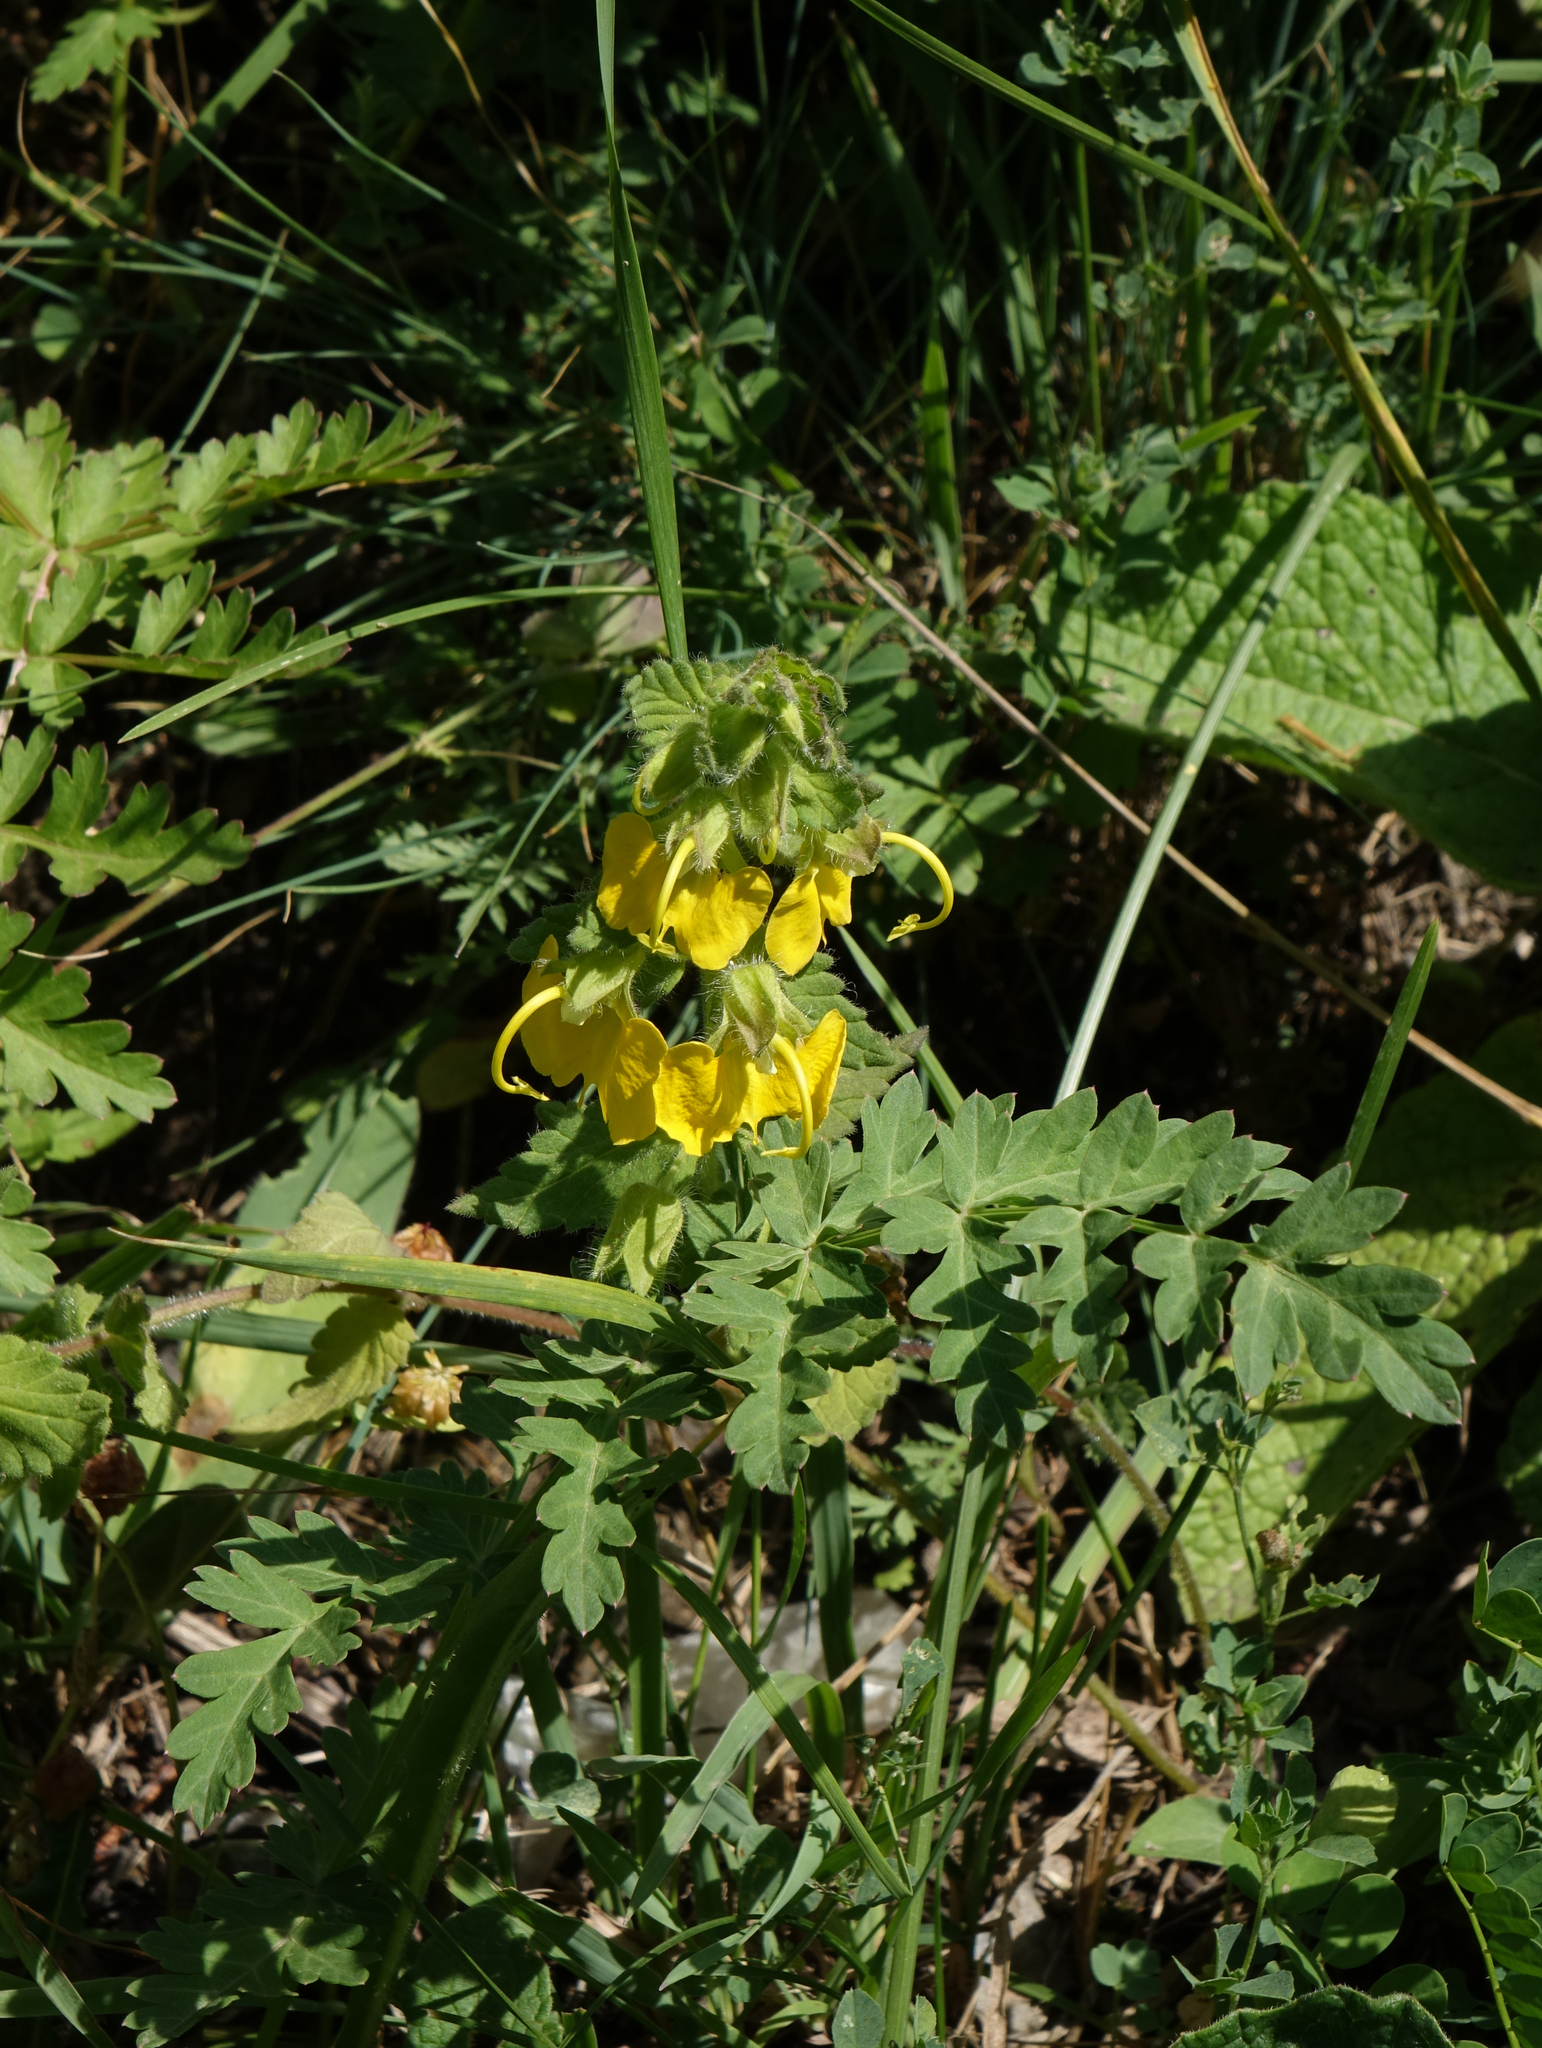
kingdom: Plantae
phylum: Tracheophyta
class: Magnoliopsida
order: Lamiales
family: Orobanchaceae
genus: Rhynchocorys
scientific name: Rhynchocorys orientalis
